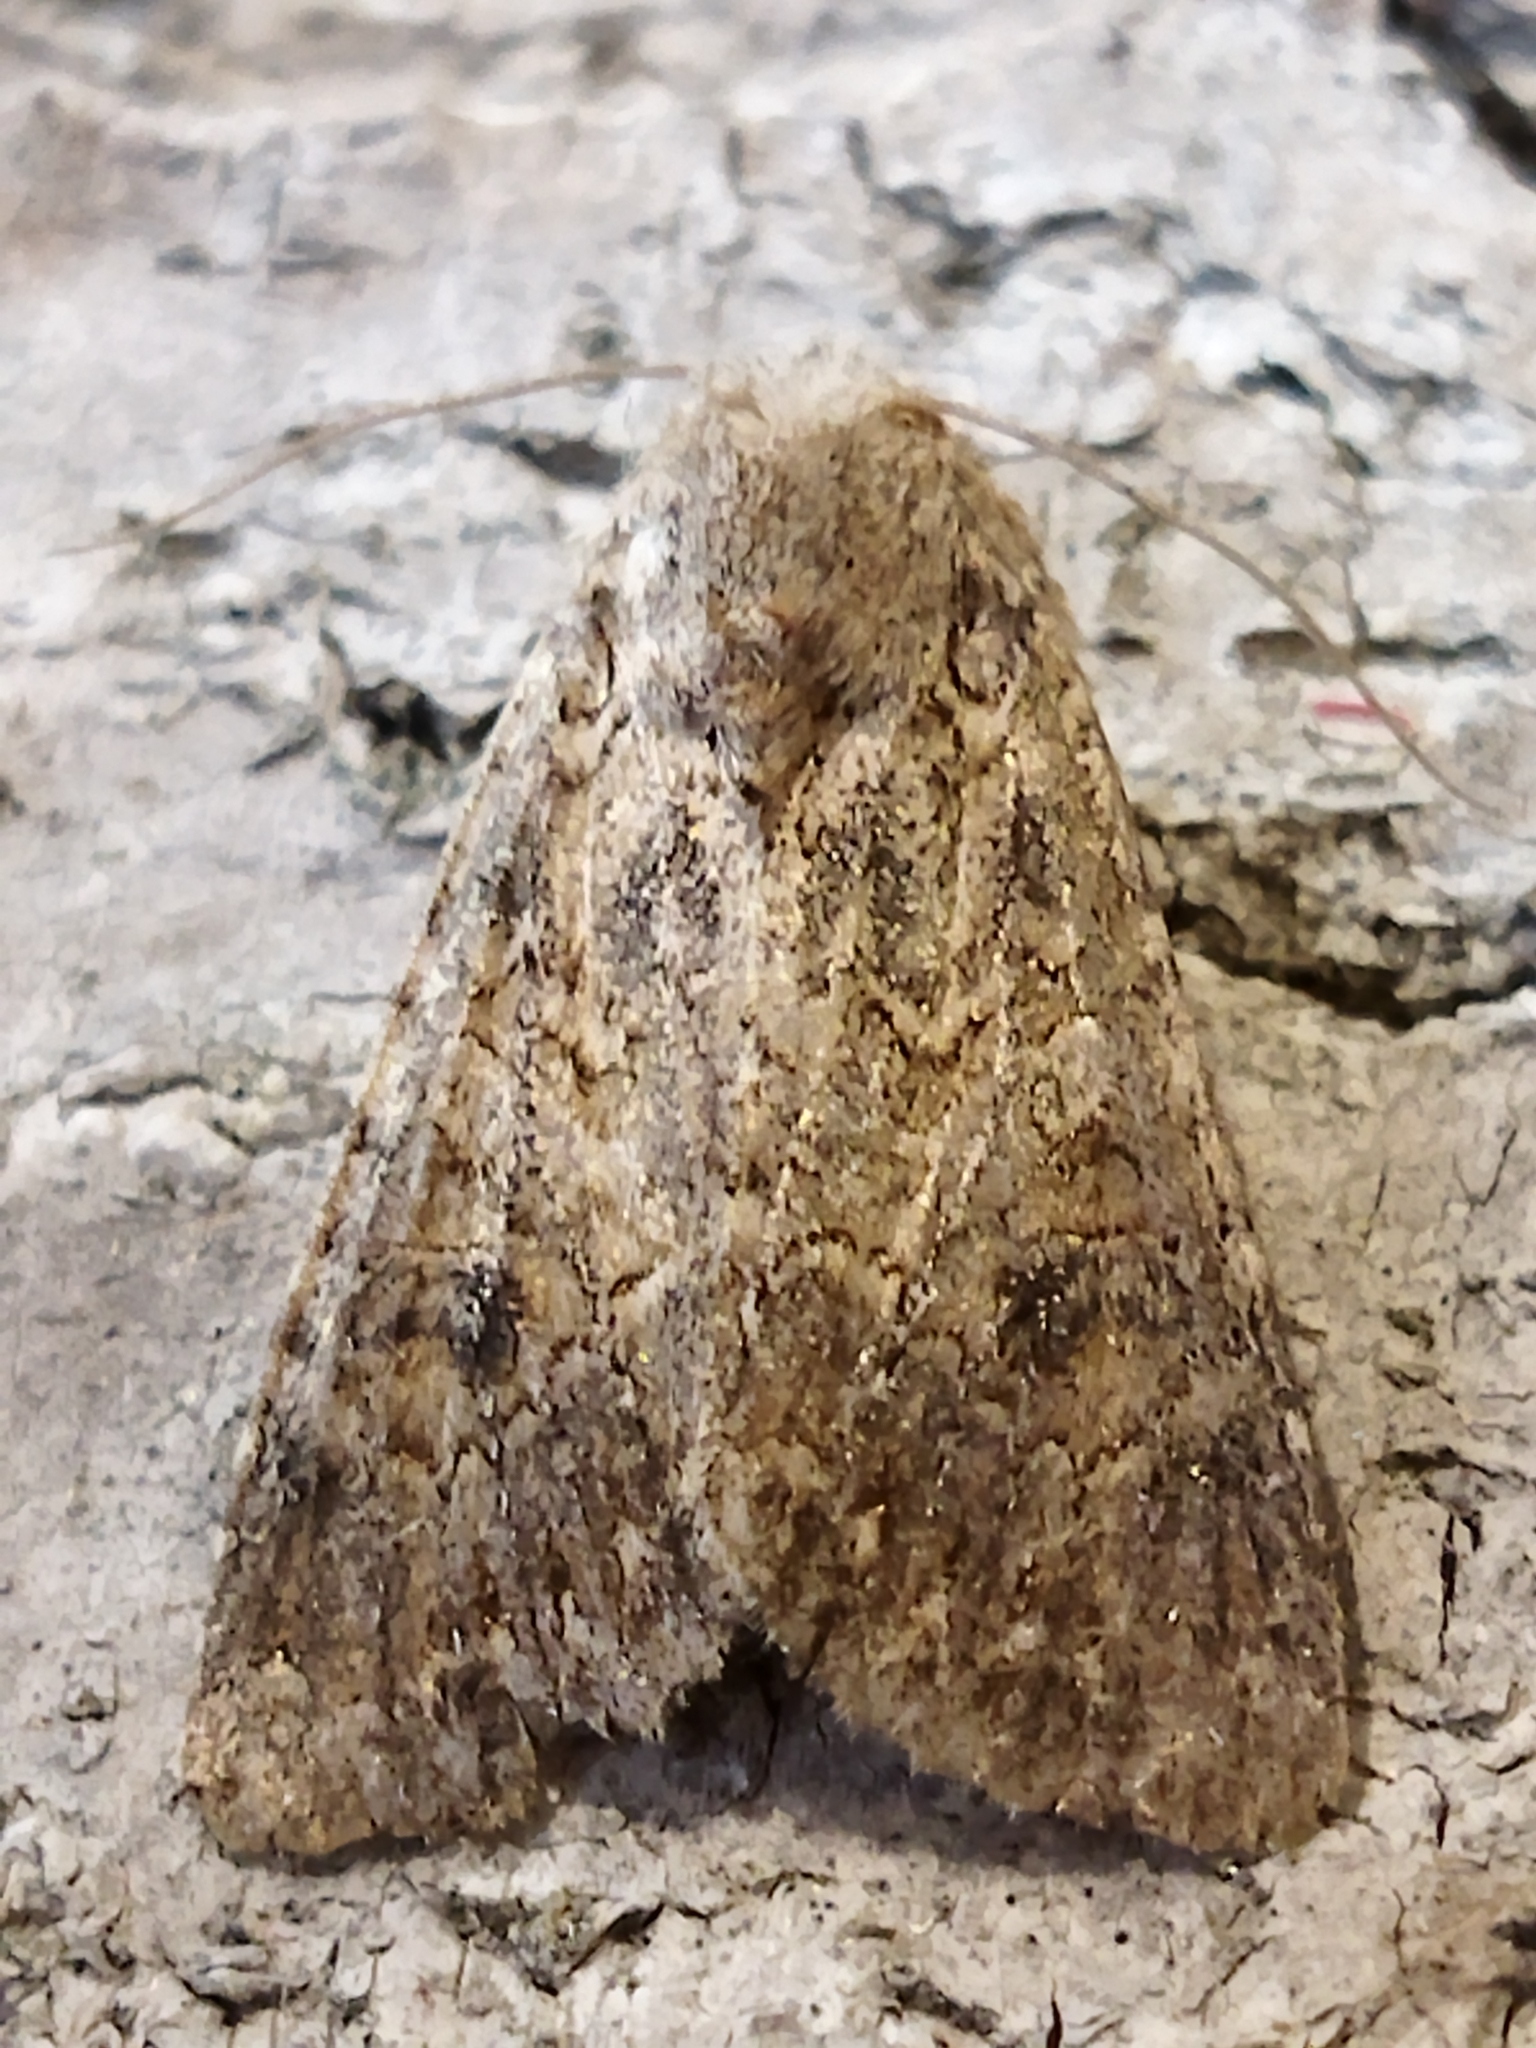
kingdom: Animalia
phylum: Arthropoda
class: Insecta
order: Lepidoptera
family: Noctuidae
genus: Anarta
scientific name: Anarta trifolii
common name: Clover cutworm moth
